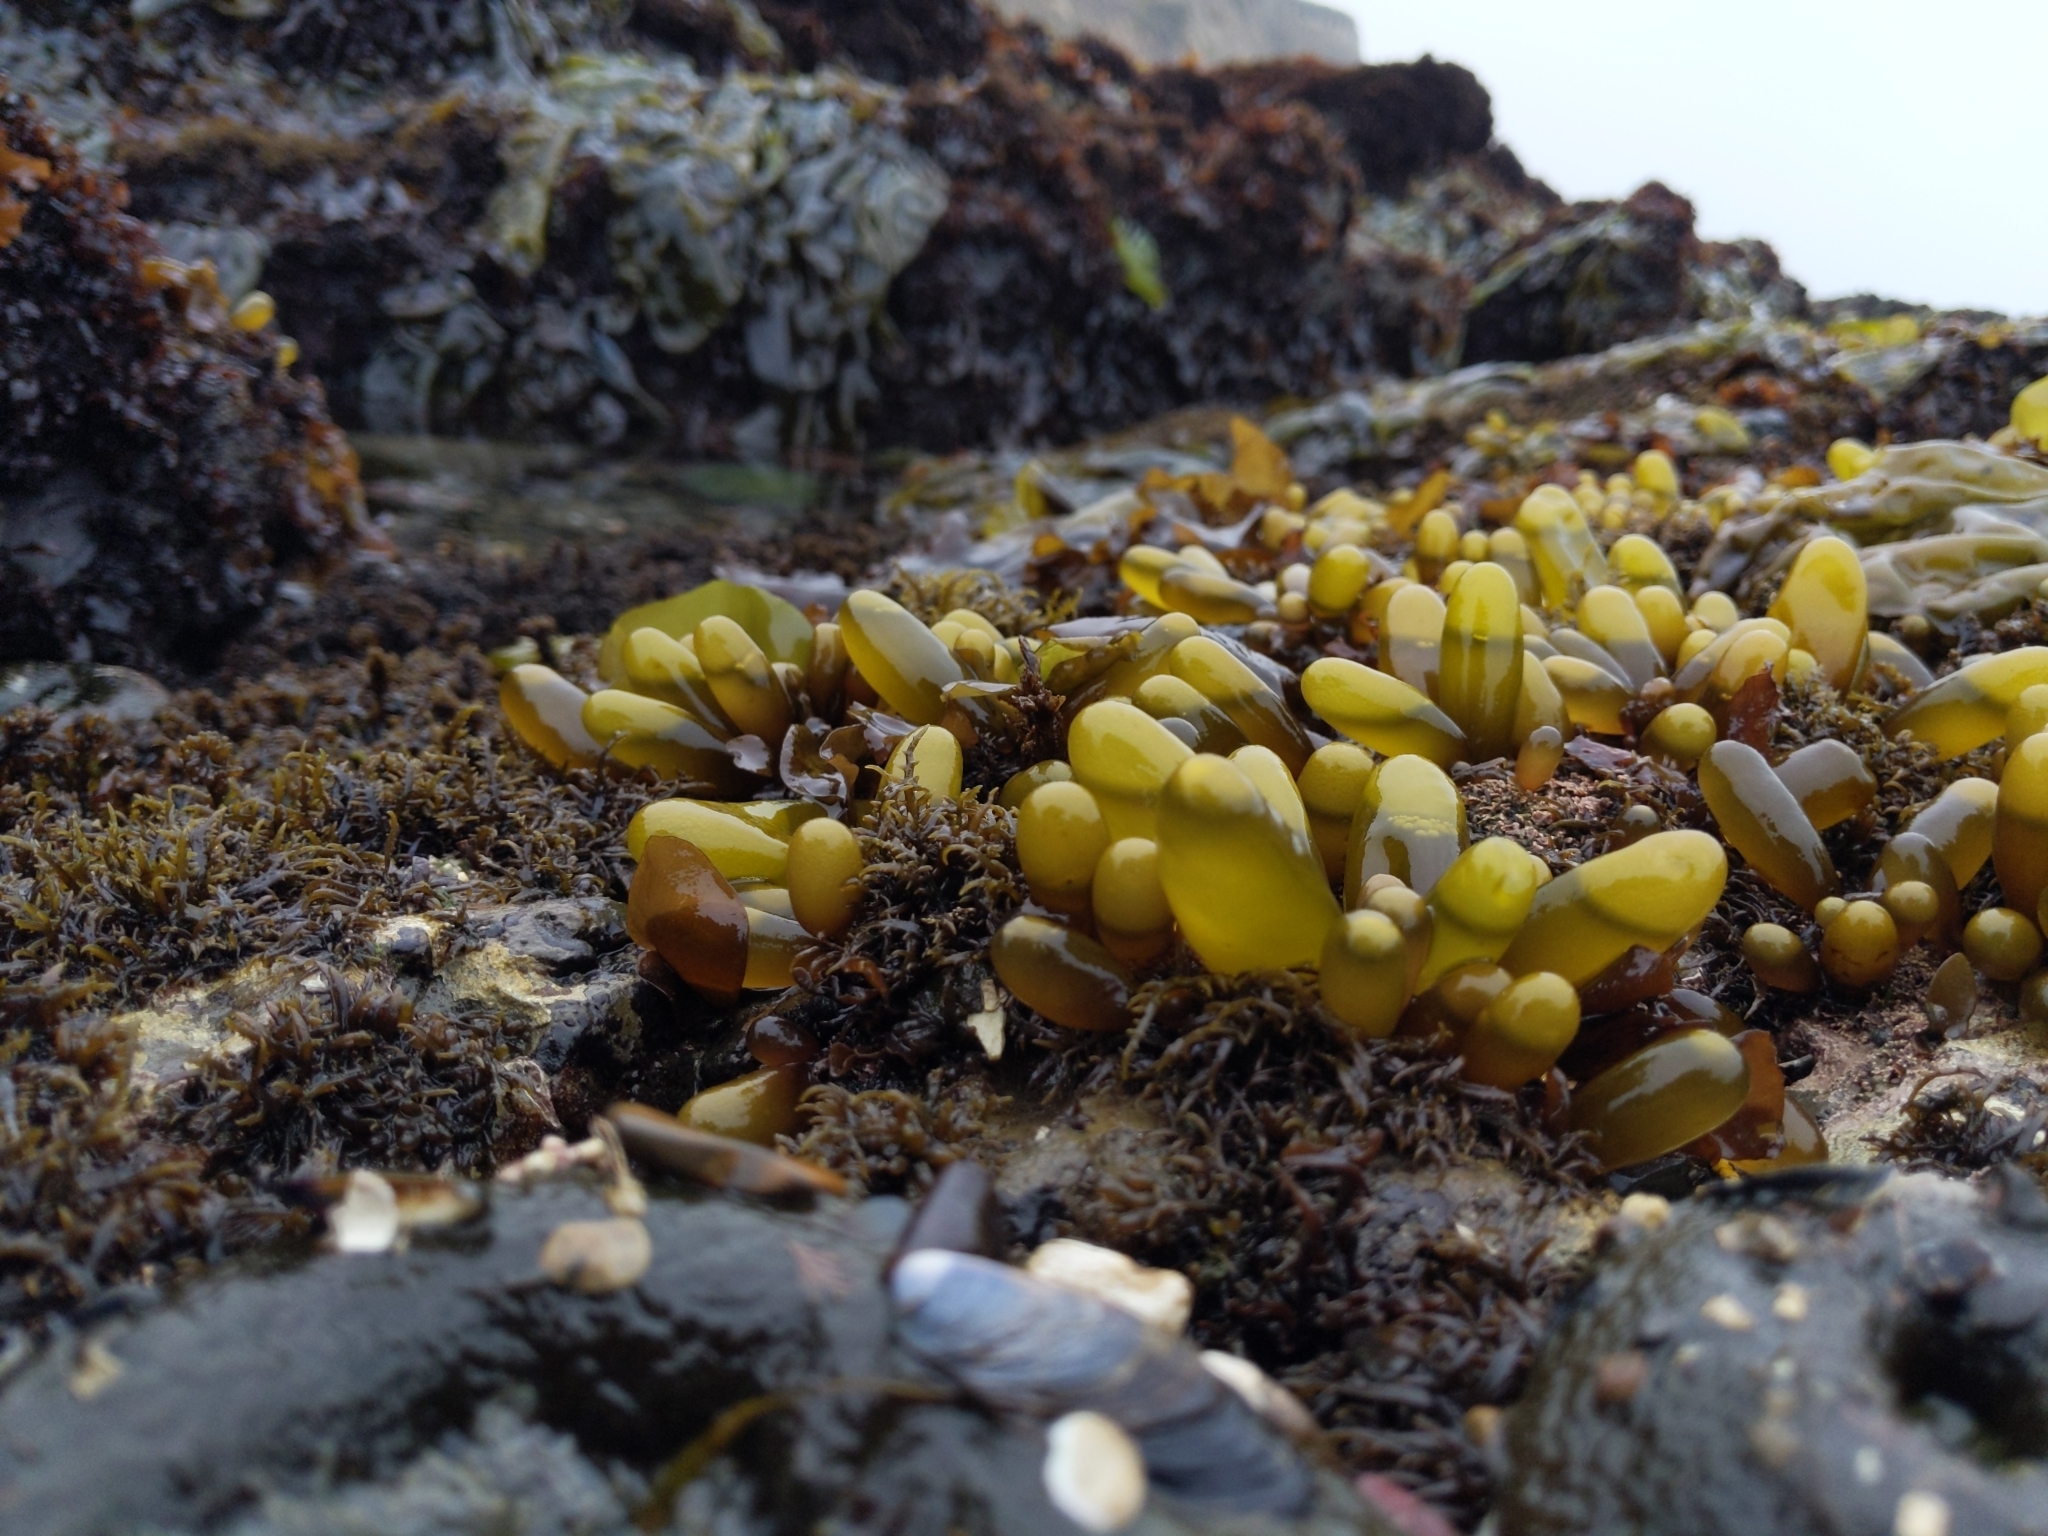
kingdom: Plantae
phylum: Rhodophyta
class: Florideophyceae
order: Palmariales
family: Palmariaceae
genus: Halosaccion
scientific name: Halosaccion glandiforme
